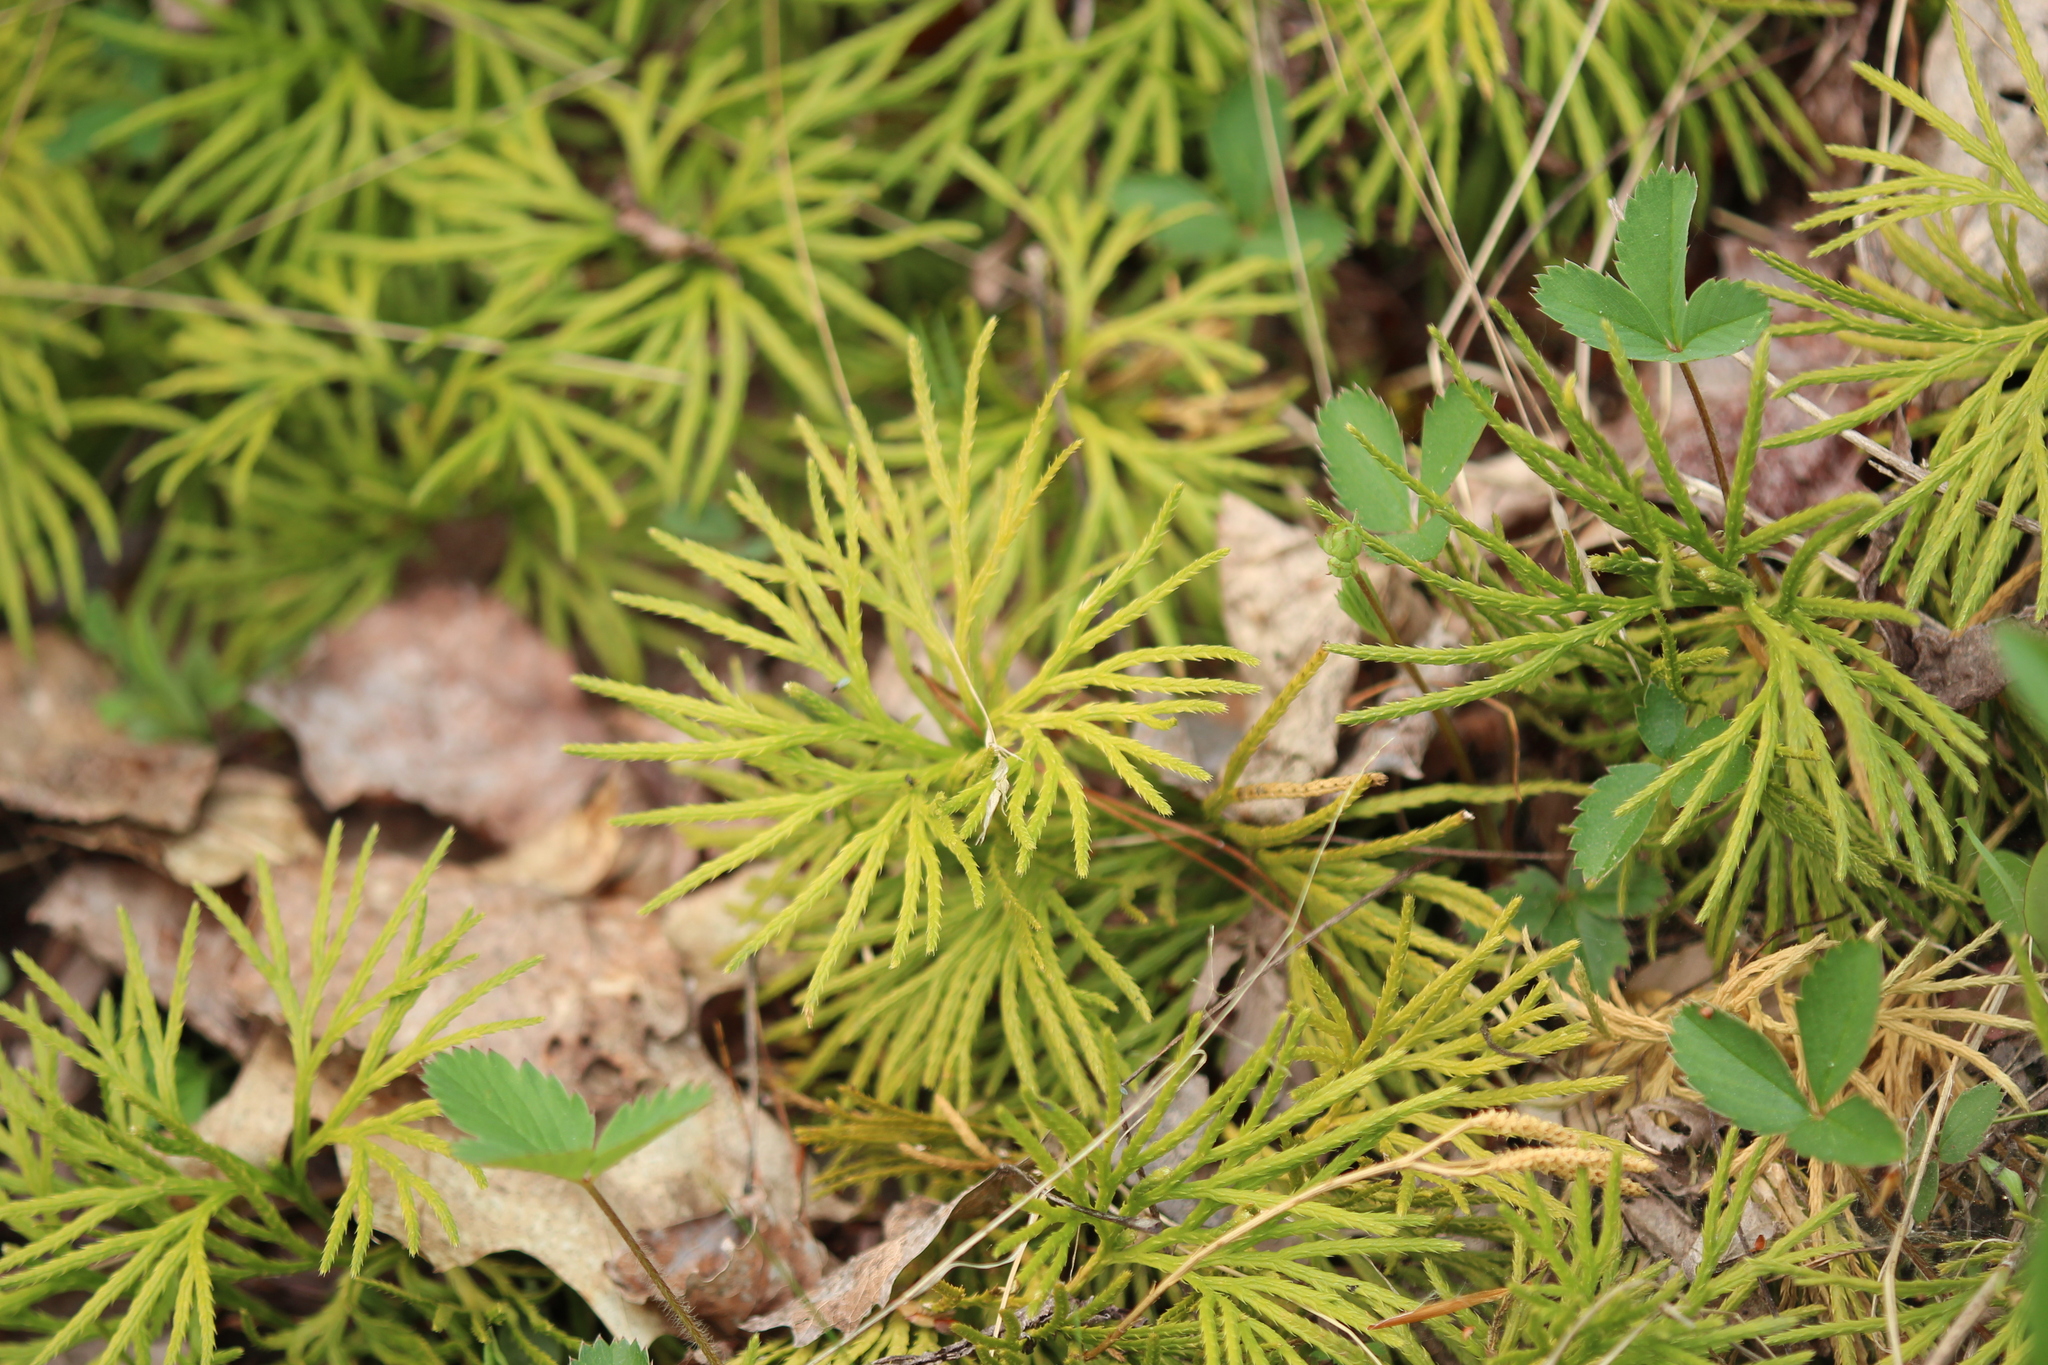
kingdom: Plantae
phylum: Tracheophyta
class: Lycopodiopsida
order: Lycopodiales
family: Lycopodiaceae
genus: Diphasiastrum
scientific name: Diphasiastrum digitatum
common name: Southern running-pine
